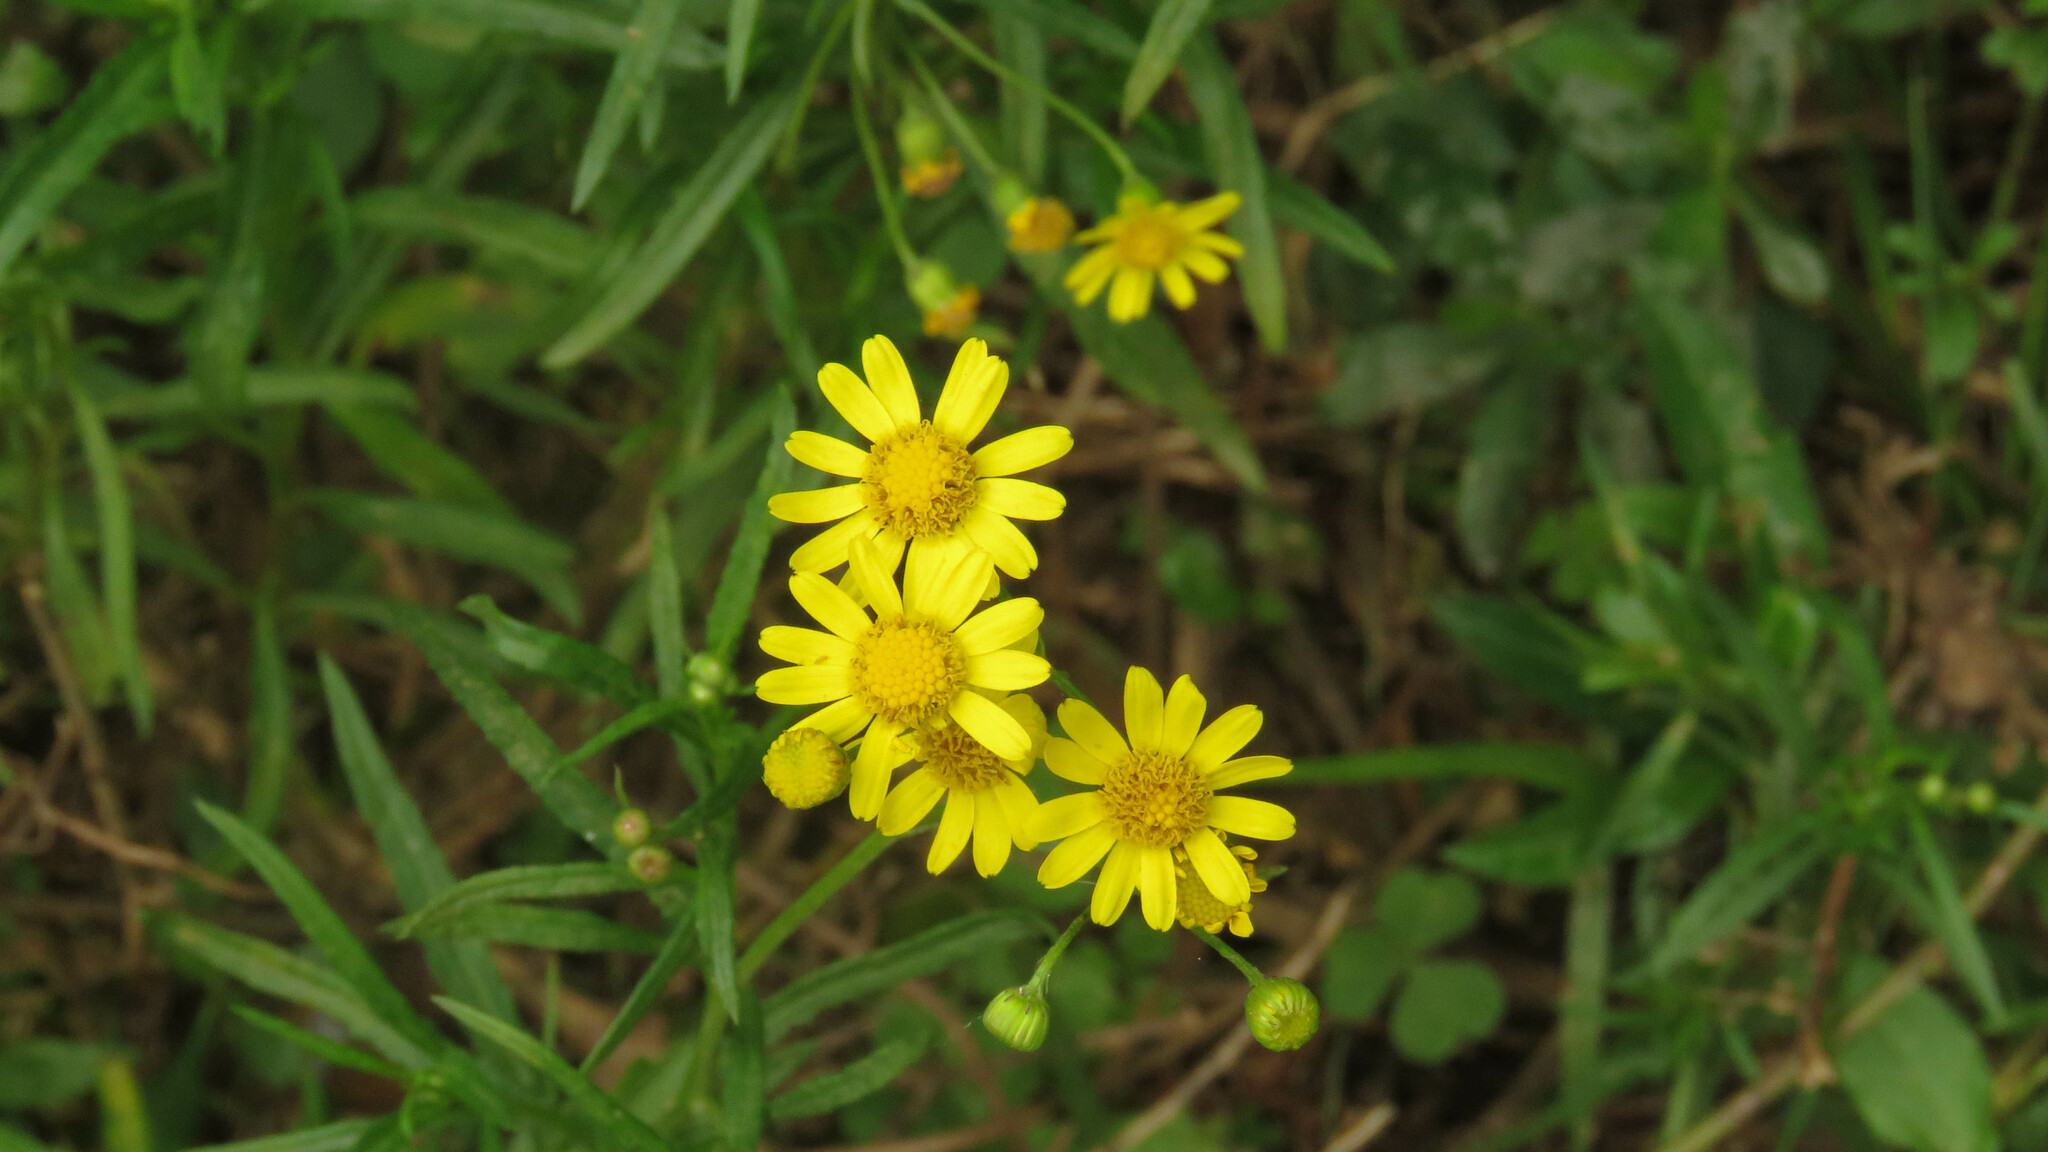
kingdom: Plantae
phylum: Tracheophyta
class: Magnoliopsida
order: Asterales
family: Asteraceae
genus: Senecio
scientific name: Senecio madagascariensis
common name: Madagascar ragwort
